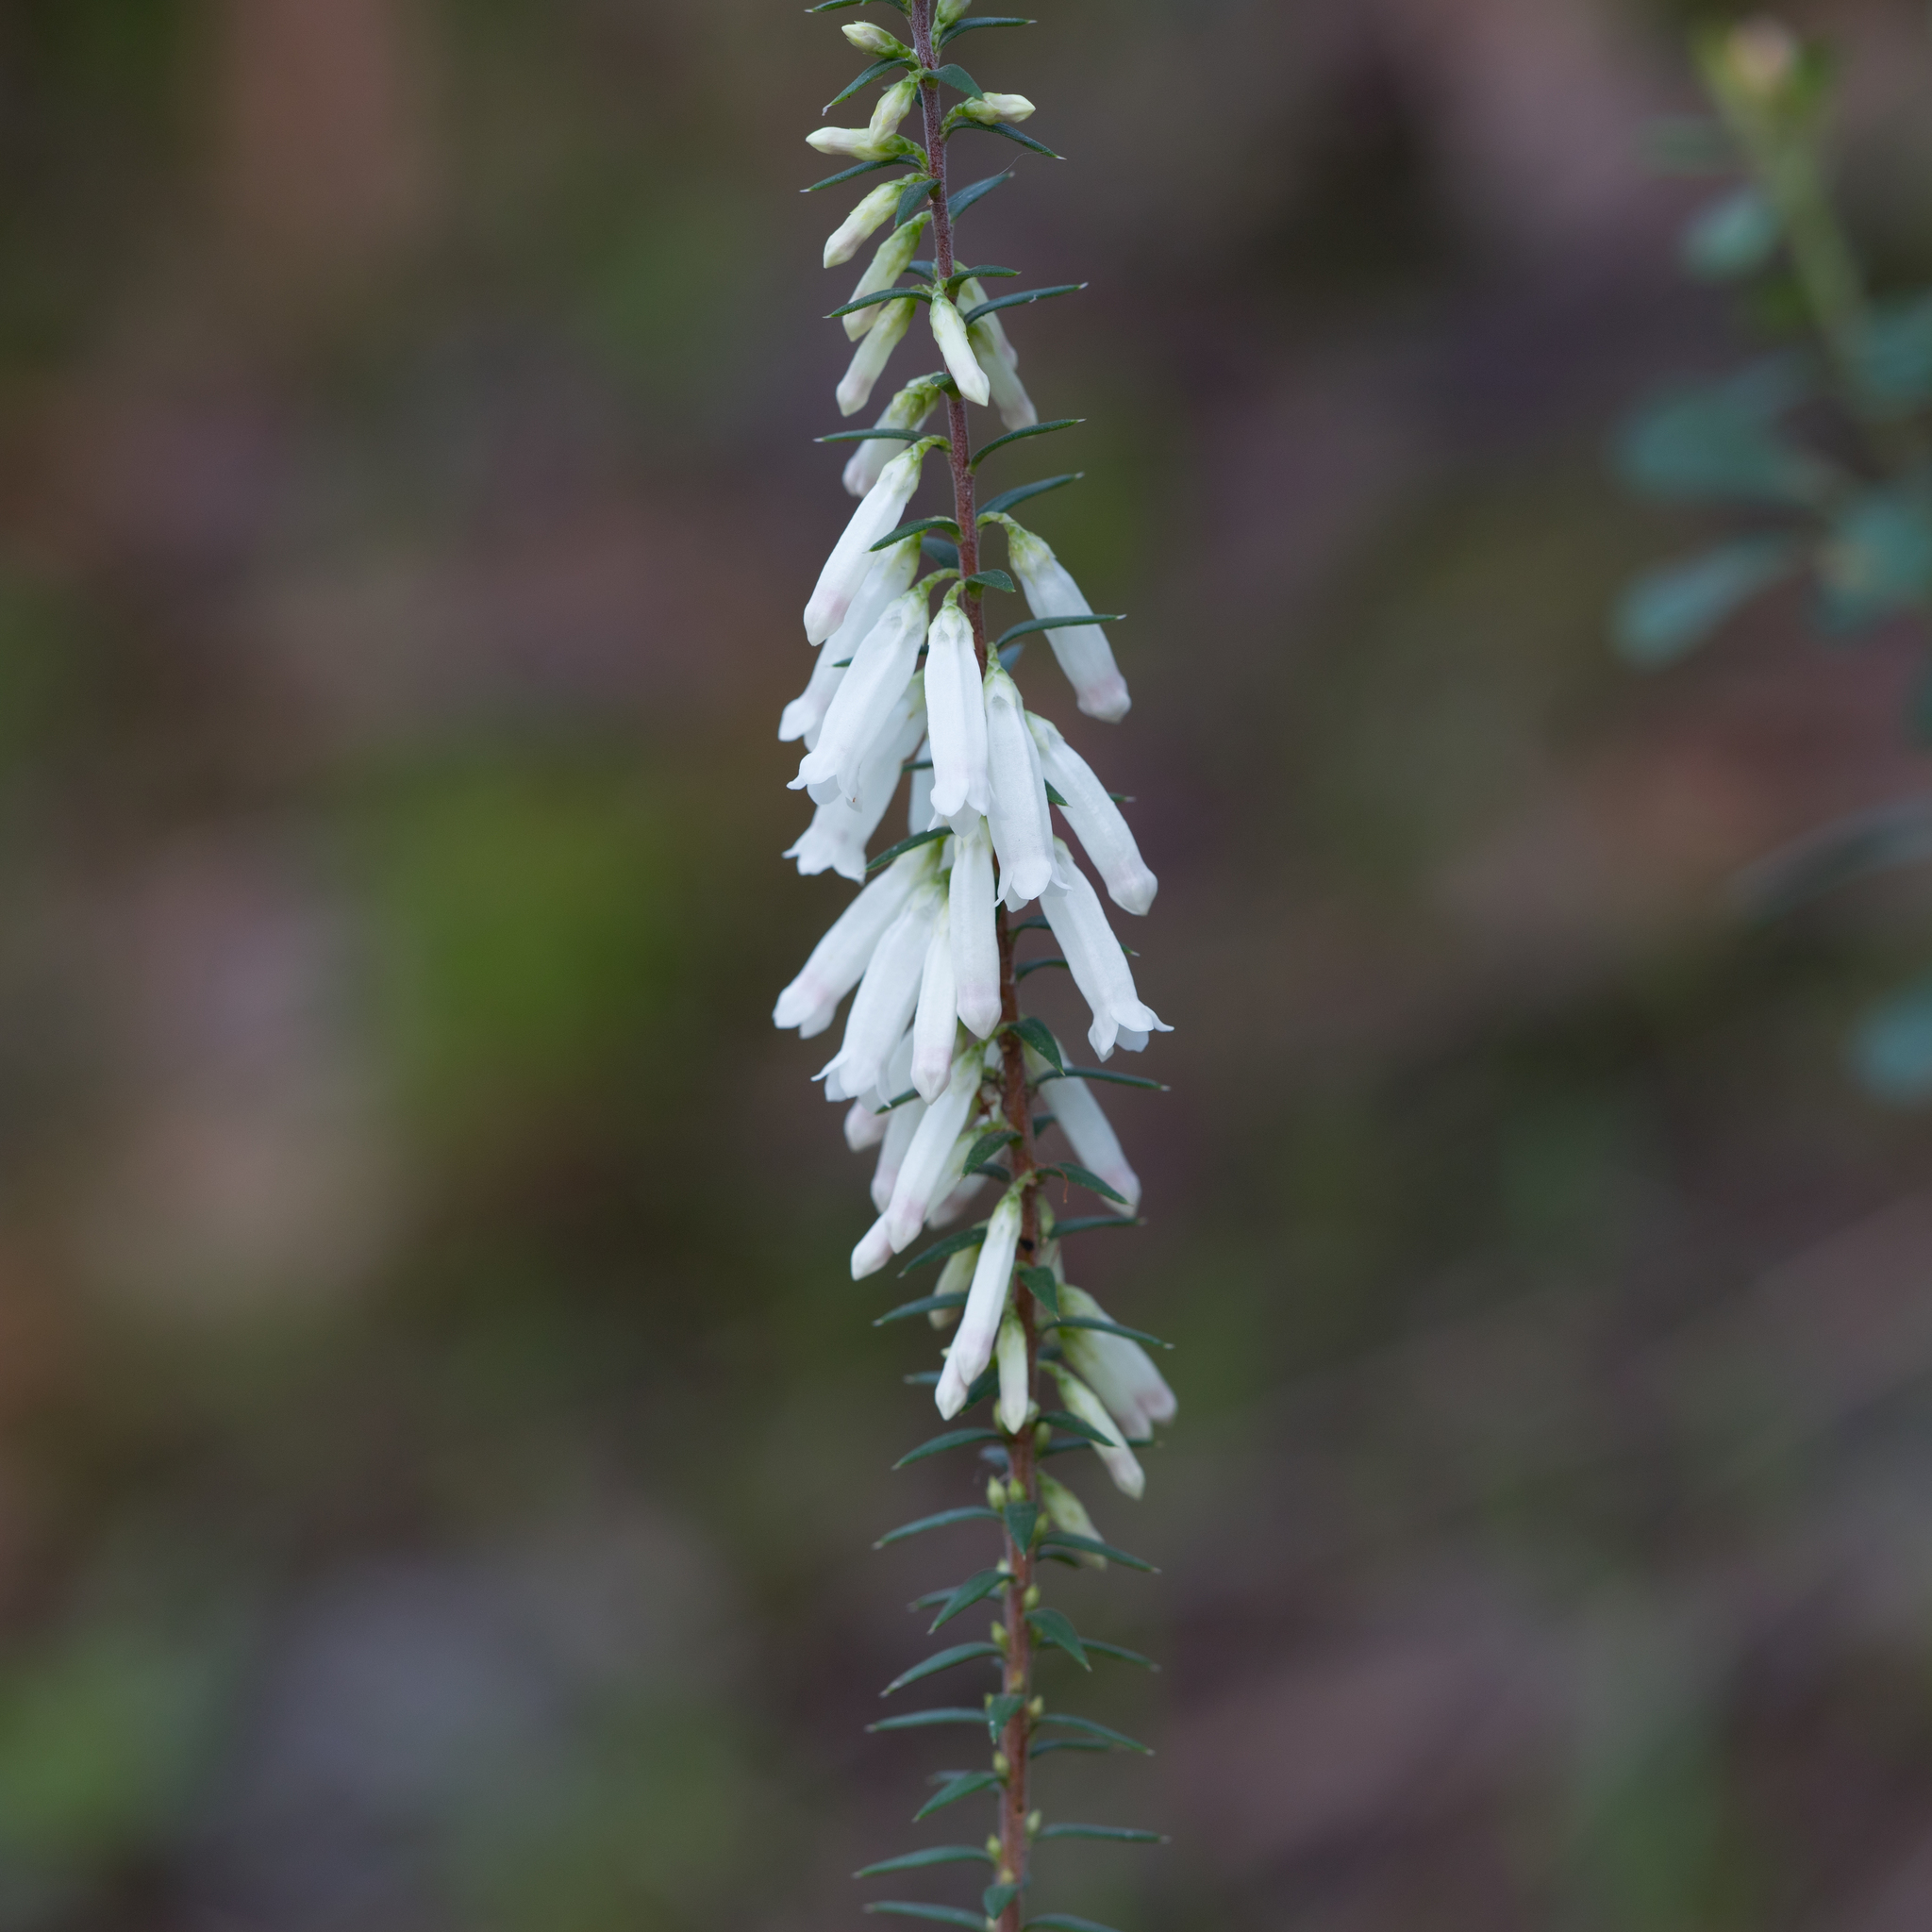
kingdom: Plantae
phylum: Tracheophyta
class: Magnoliopsida
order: Ericales
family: Ericaceae
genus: Epacris
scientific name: Epacris impressa
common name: Common-heath
